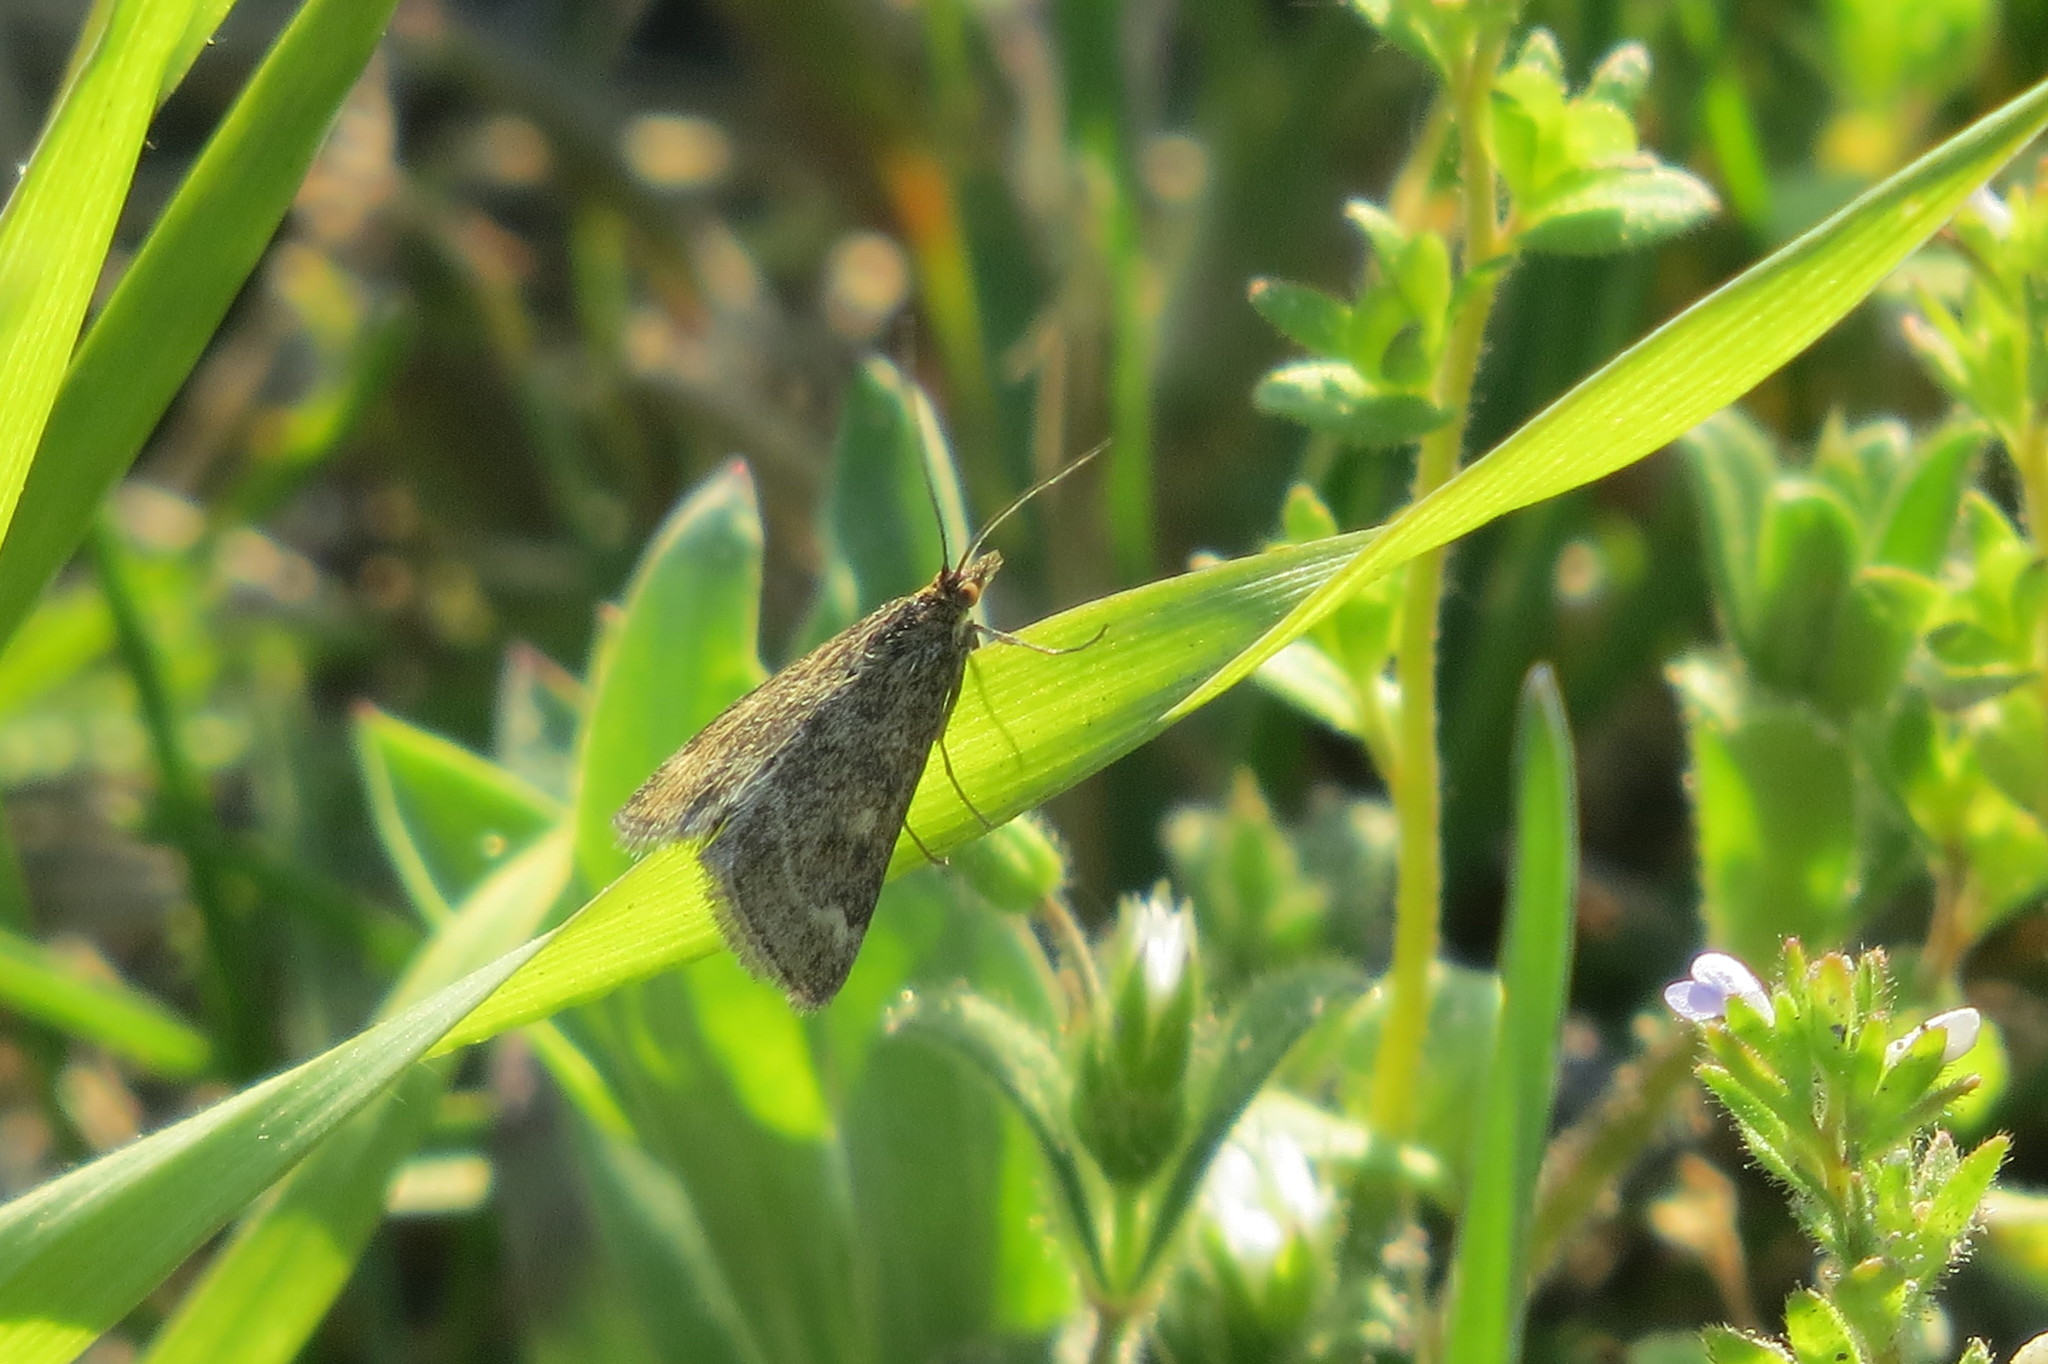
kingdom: Animalia
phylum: Arthropoda
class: Insecta
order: Lepidoptera
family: Crambidae
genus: Pyrausta
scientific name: Pyrausta despicata
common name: Straw-barred pearl
